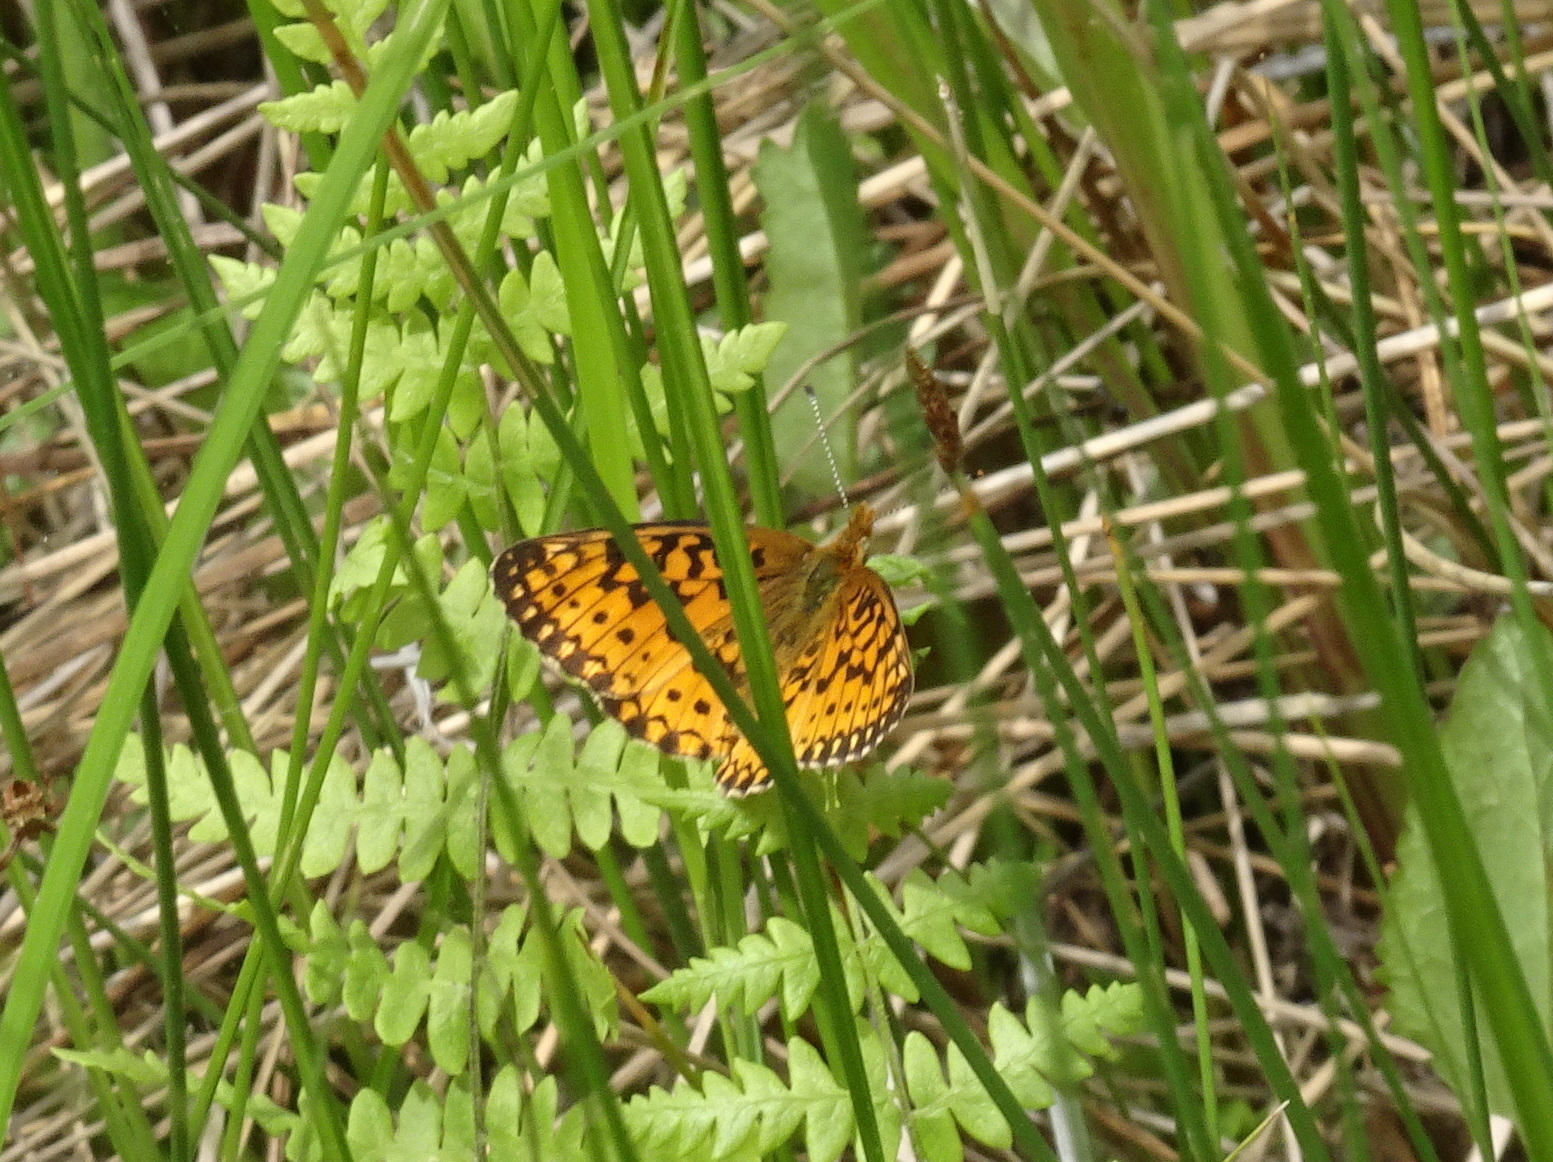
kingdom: Animalia
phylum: Arthropoda
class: Insecta
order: Lepidoptera
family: Nymphalidae
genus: Boloria
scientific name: Boloria
